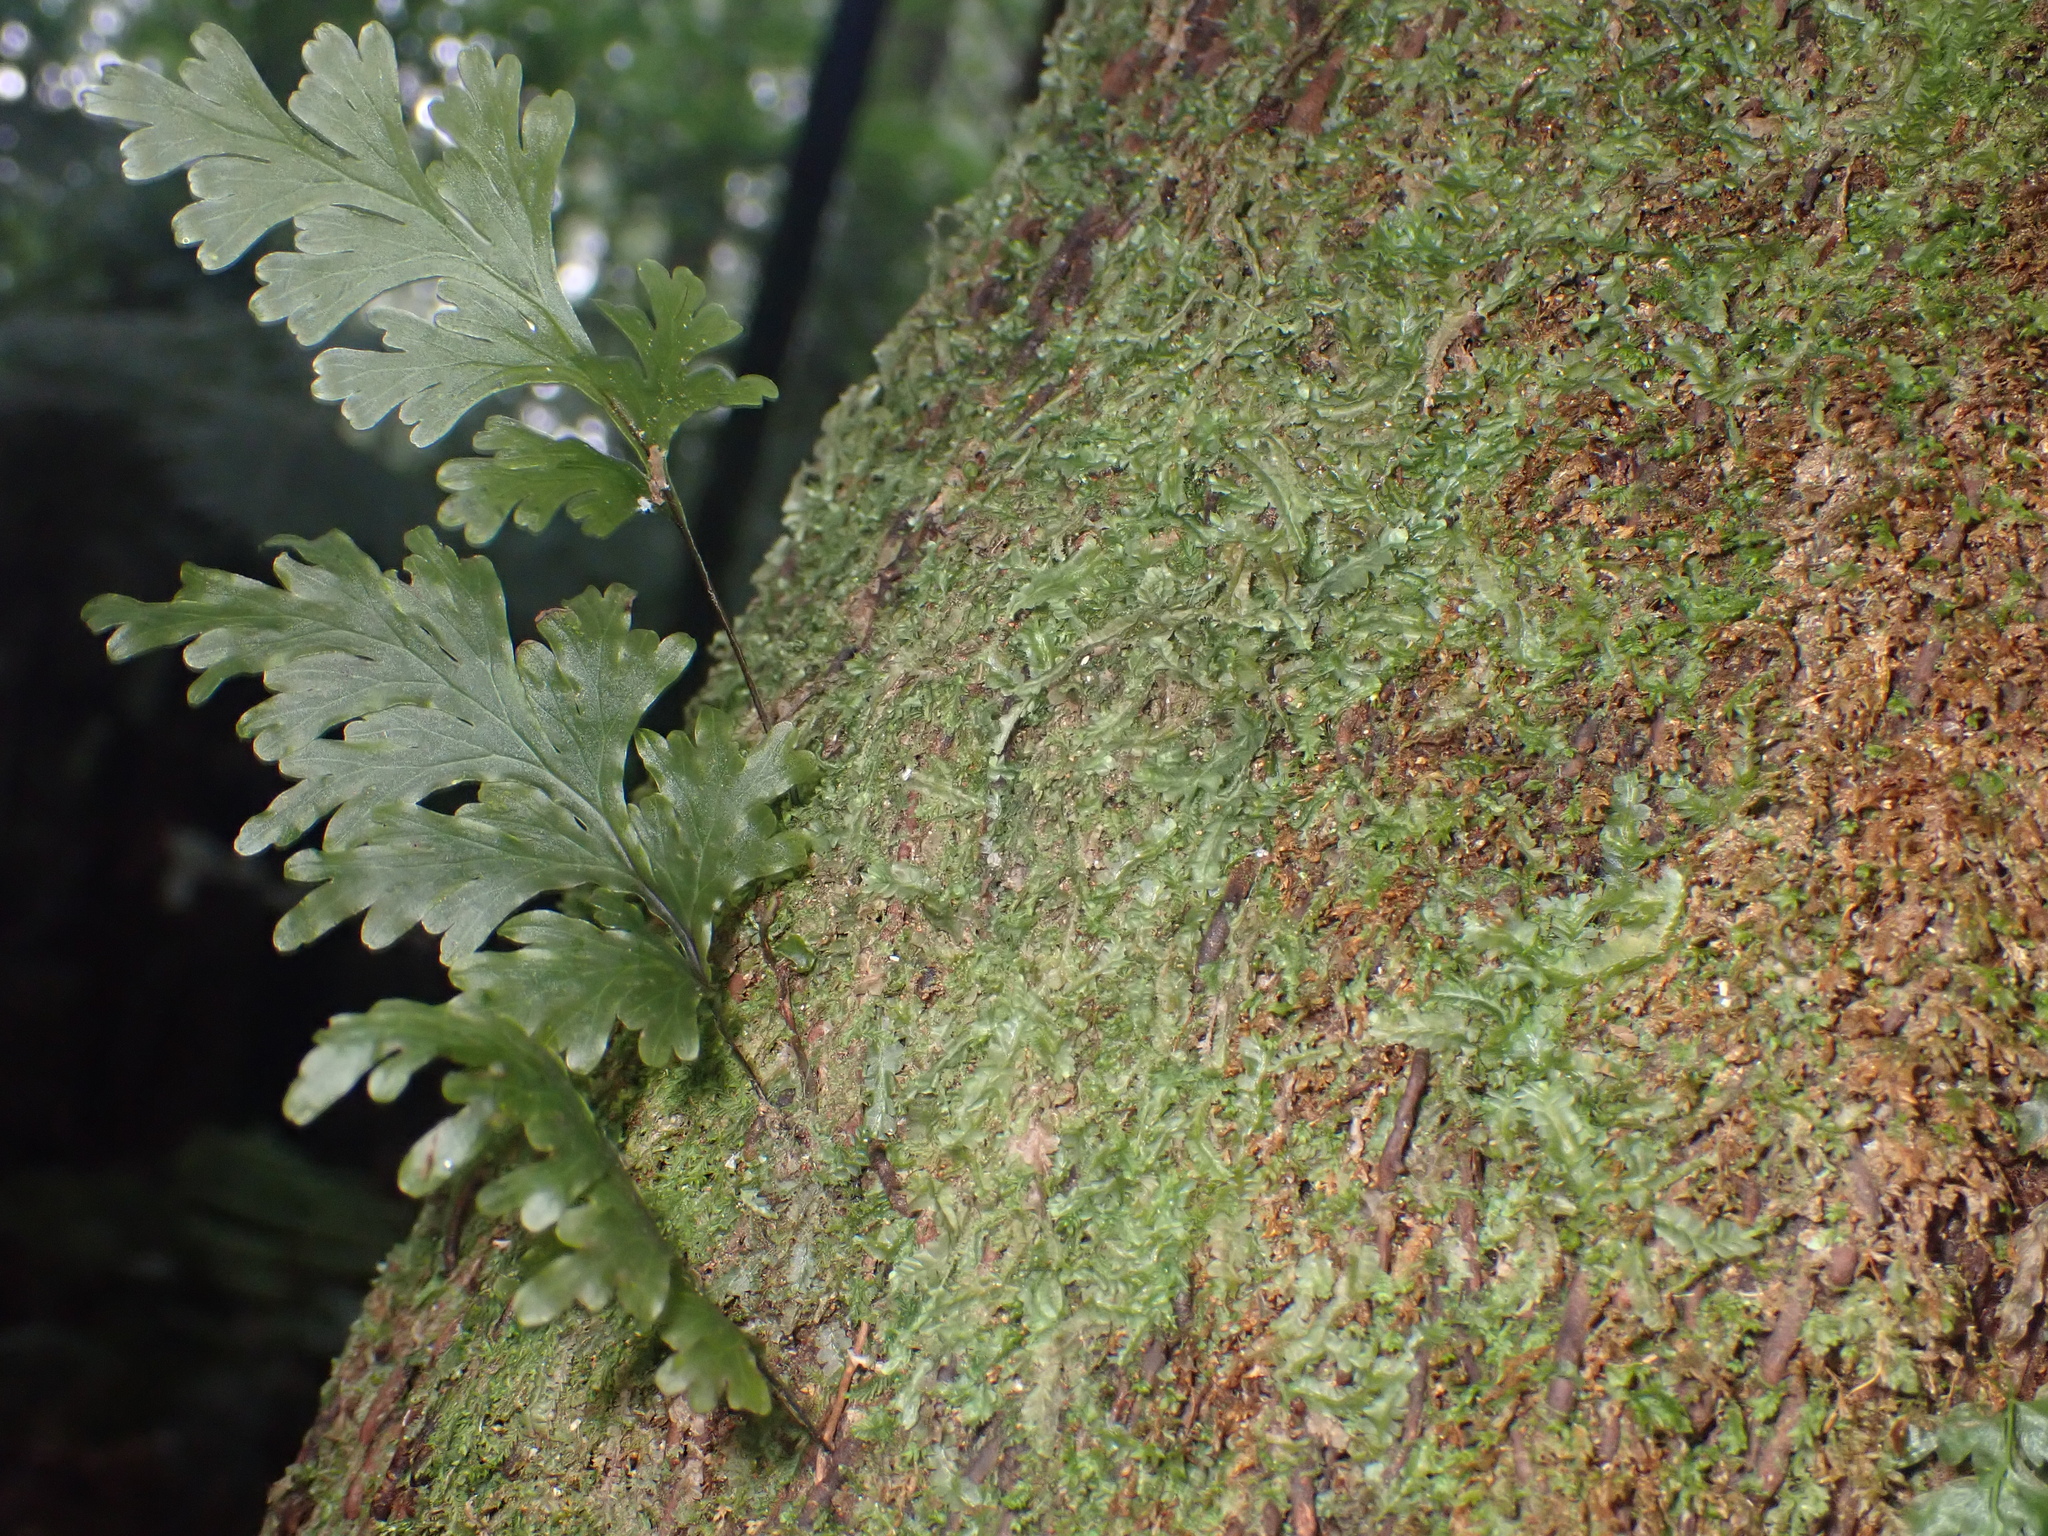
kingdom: Plantae
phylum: Tracheophyta
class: Polypodiopsida
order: Hymenophyllales
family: Hymenophyllaceae
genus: Hymenophyllum
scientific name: Hymenophyllum dilatatum
